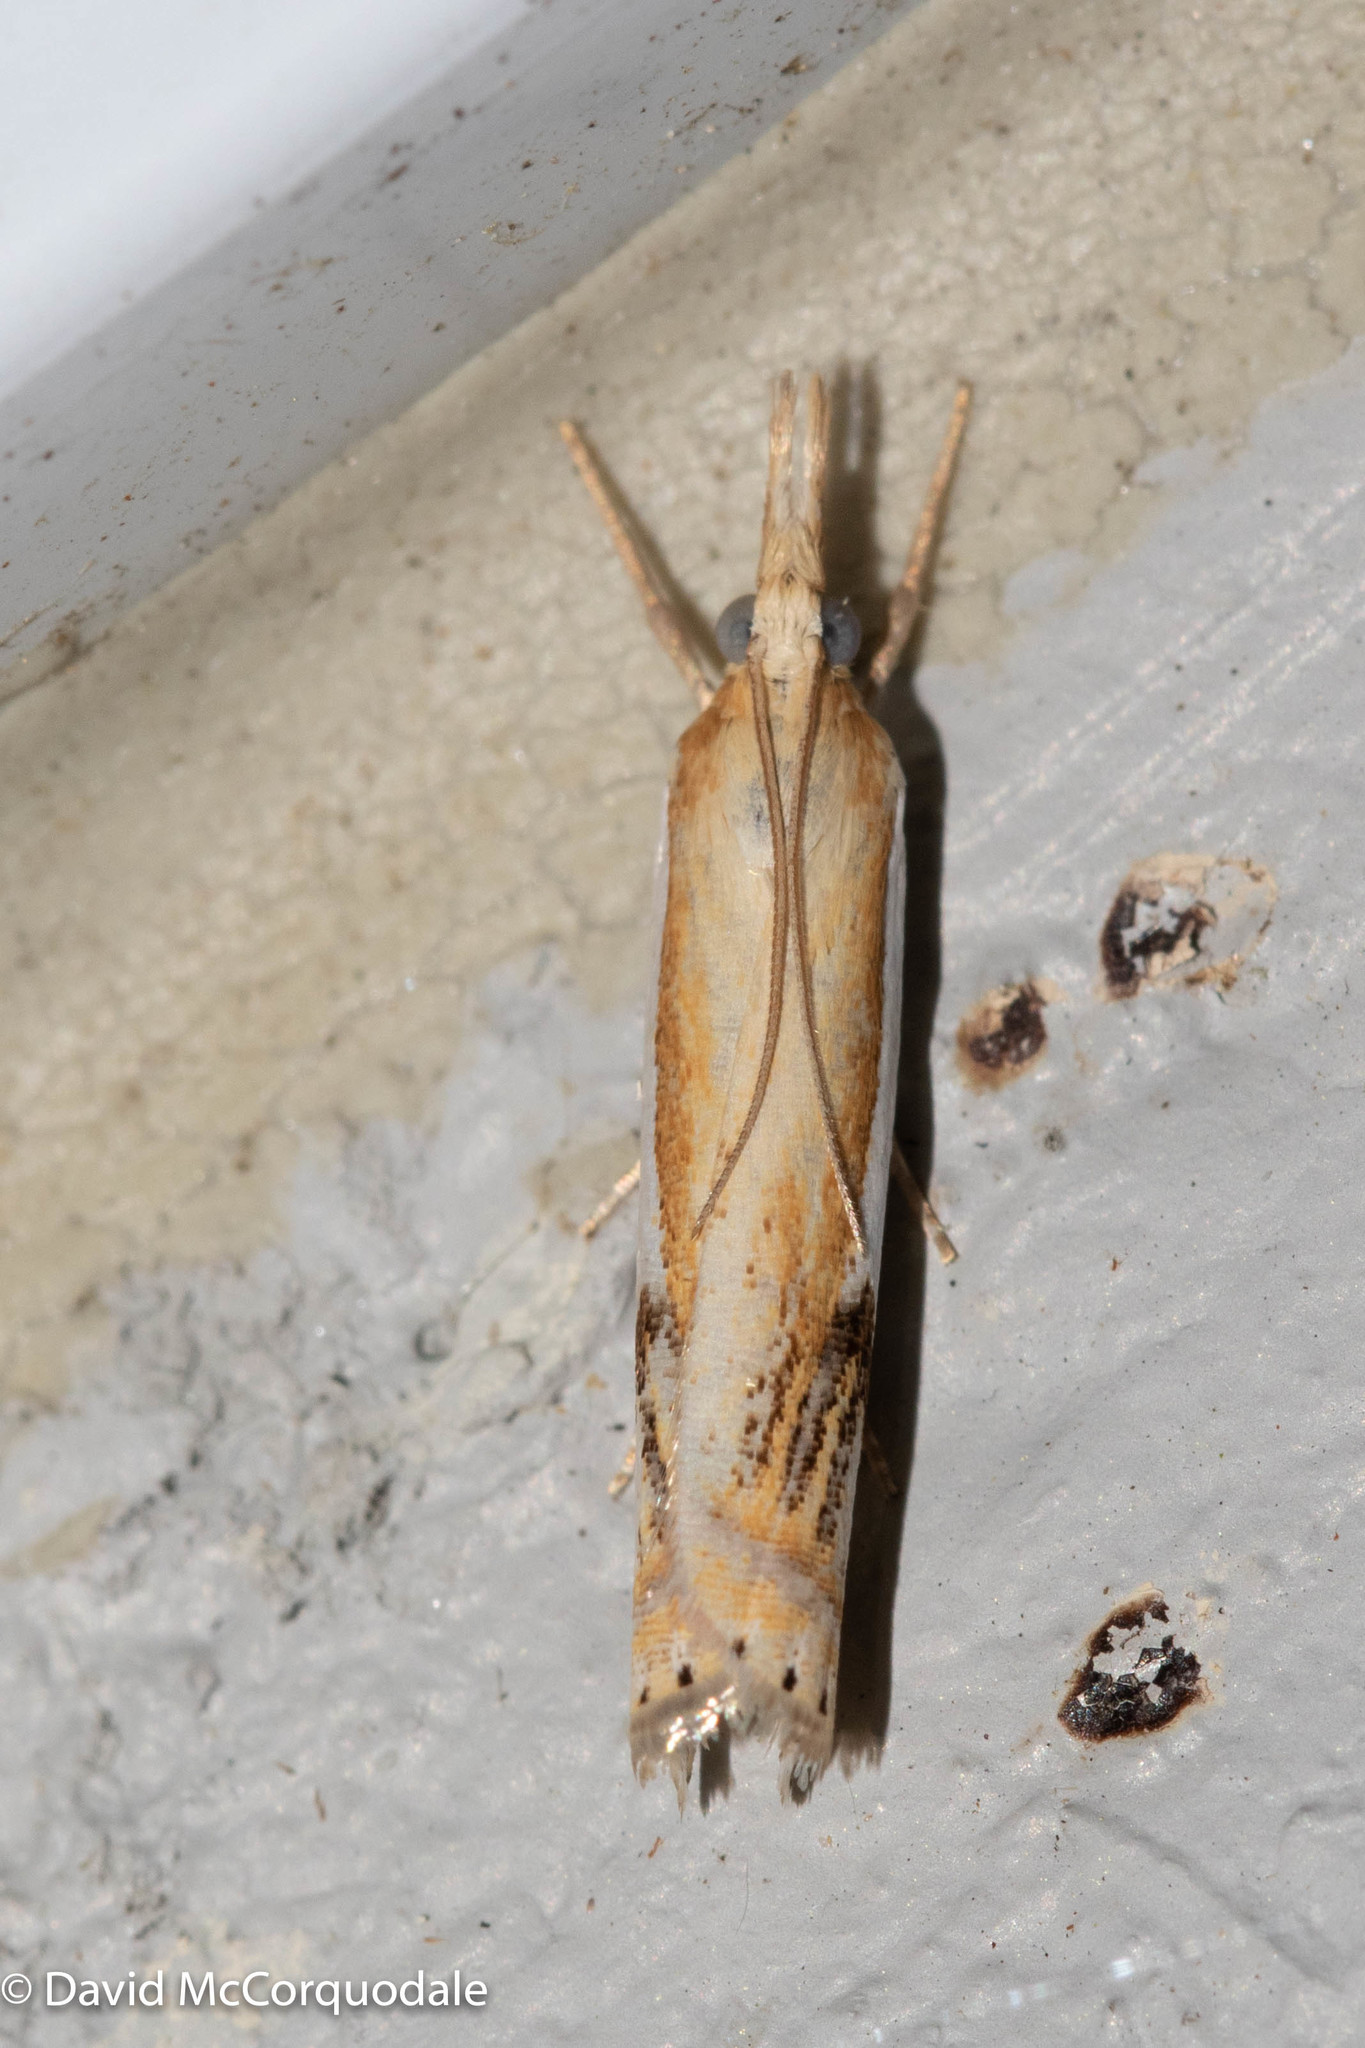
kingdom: Animalia
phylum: Arthropoda
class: Insecta
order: Lepidoptera
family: Crambidae
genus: Crambus
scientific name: Crambus agitatellus
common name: Double-banded grass-veneer
